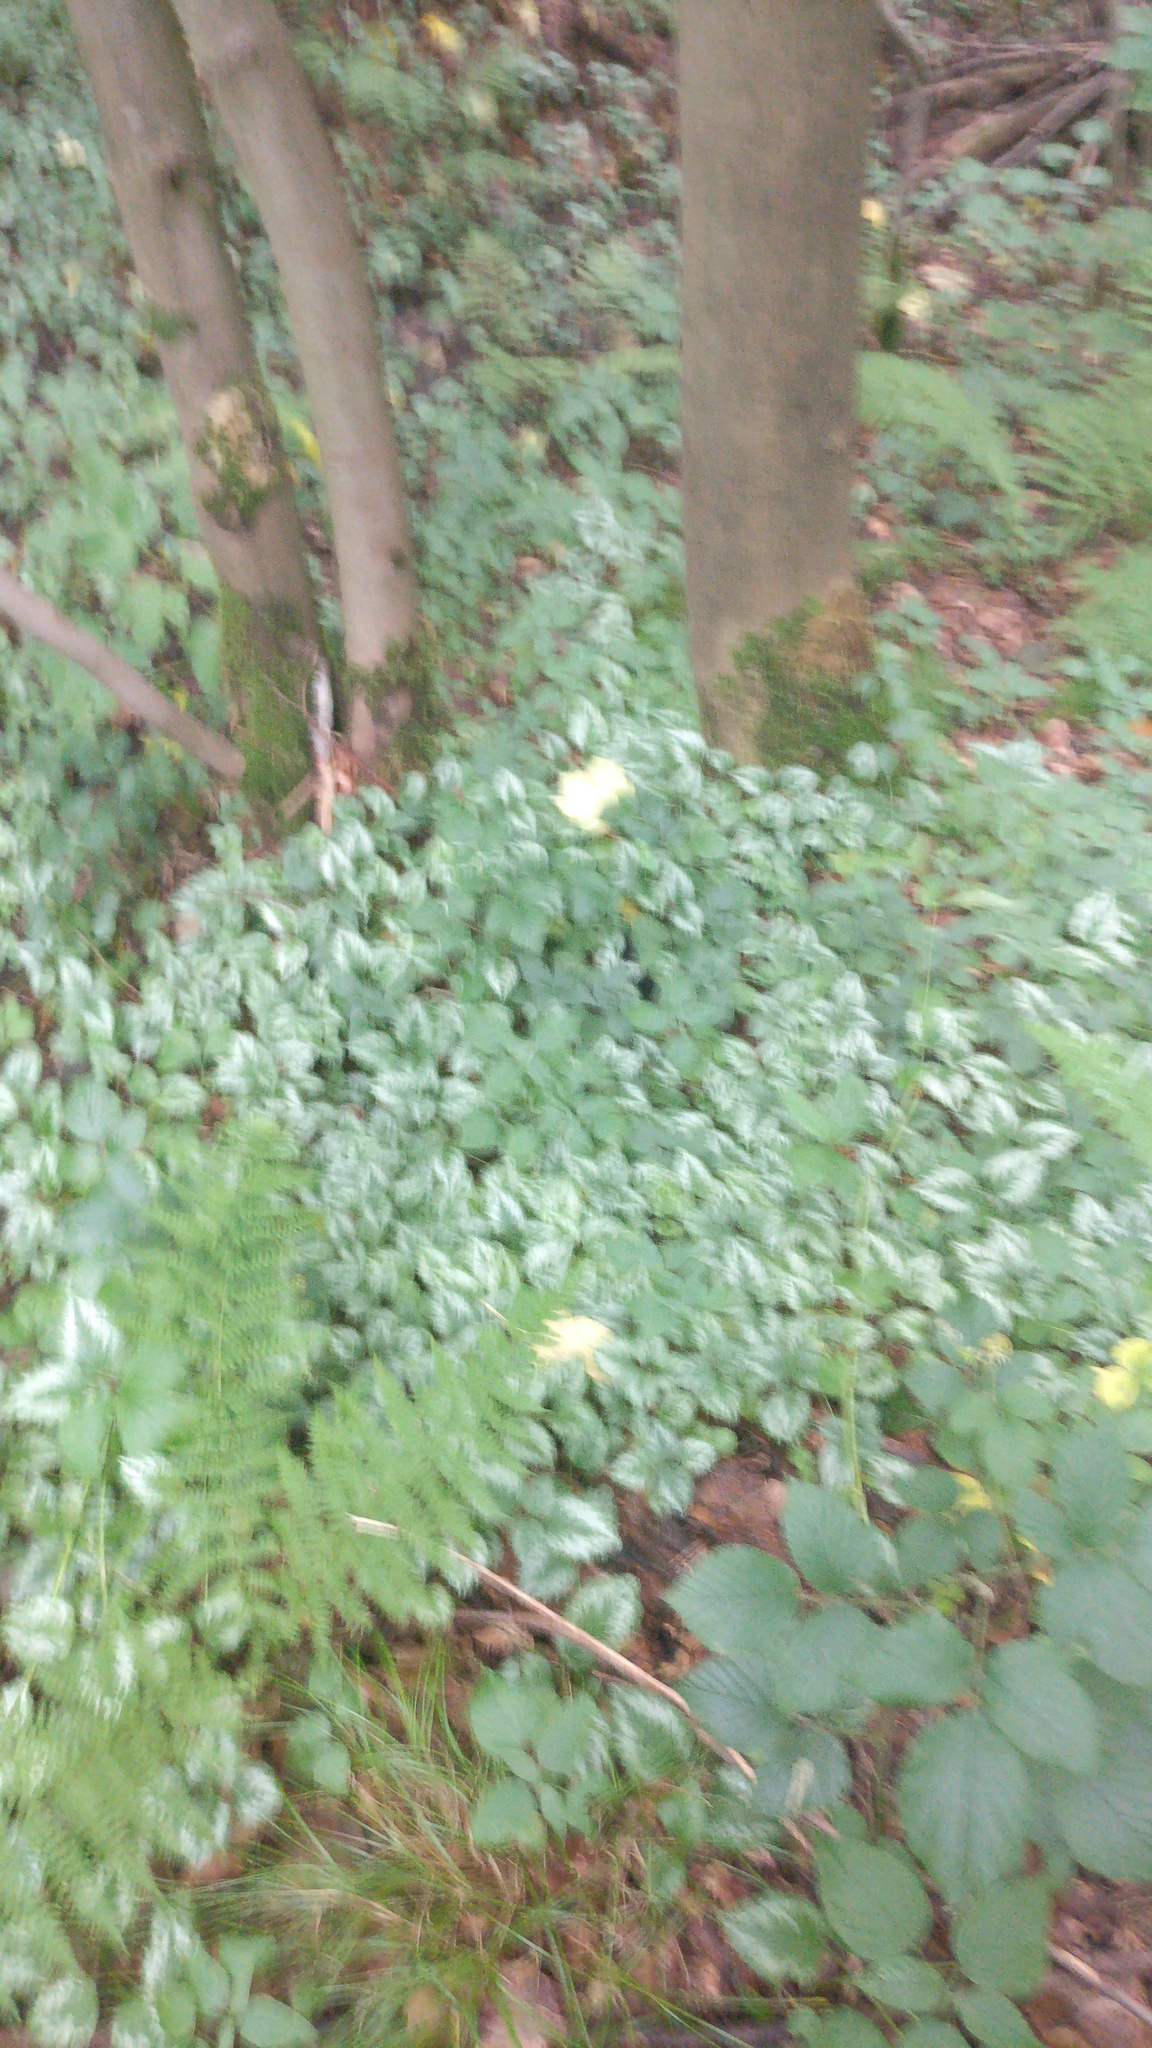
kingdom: Plantae
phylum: Tracheophyta
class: Magnoliopsida
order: Lamiales
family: Lamiaceae
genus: Lamium
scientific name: Lamium galeobdolon
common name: Yellow archangel
